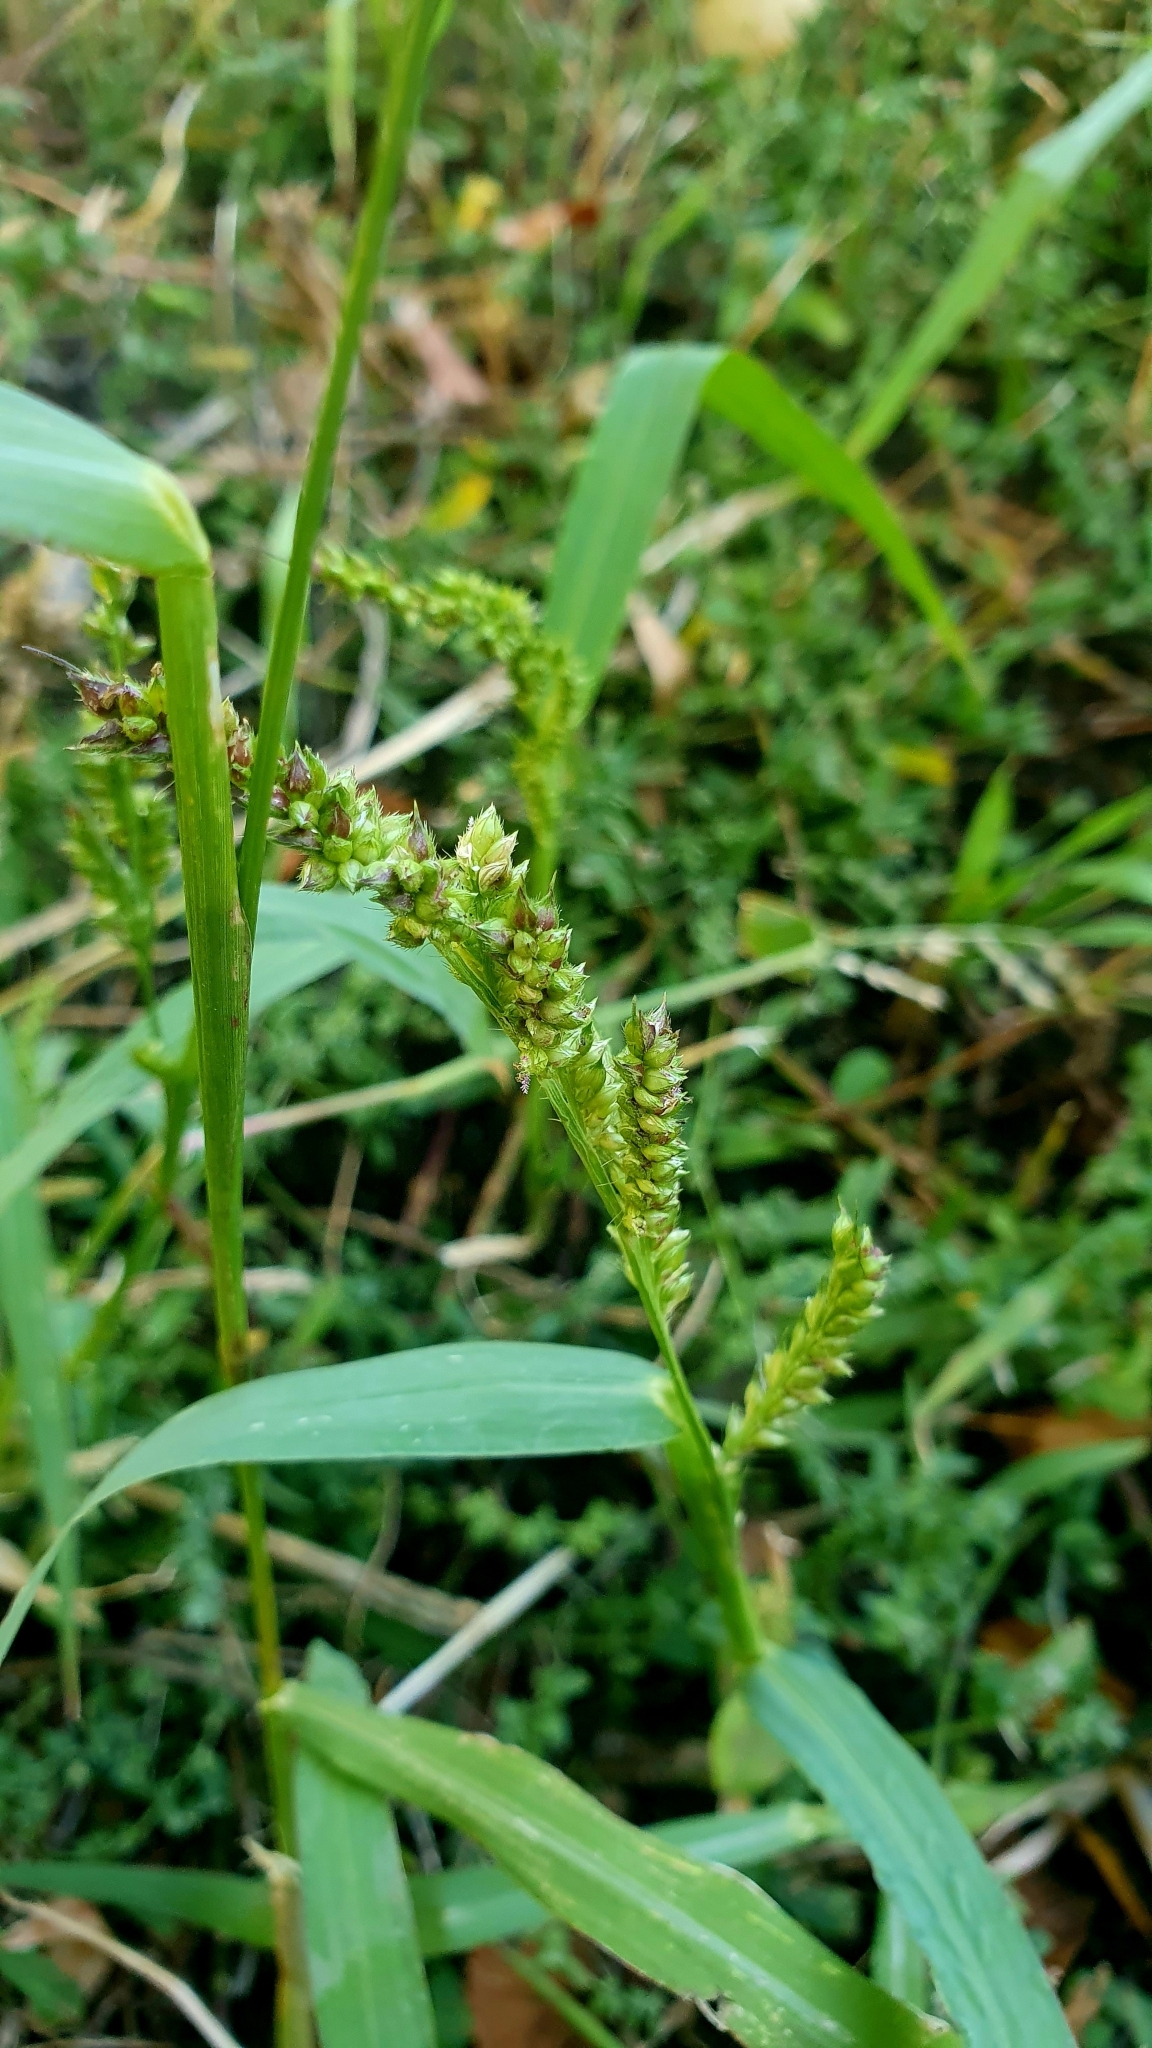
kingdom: Plantae
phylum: Tracheophyta
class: Liliopsida
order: Poales
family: Poaceae
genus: Echinochloa
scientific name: Echinochloa crus-galli
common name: Cockspur
